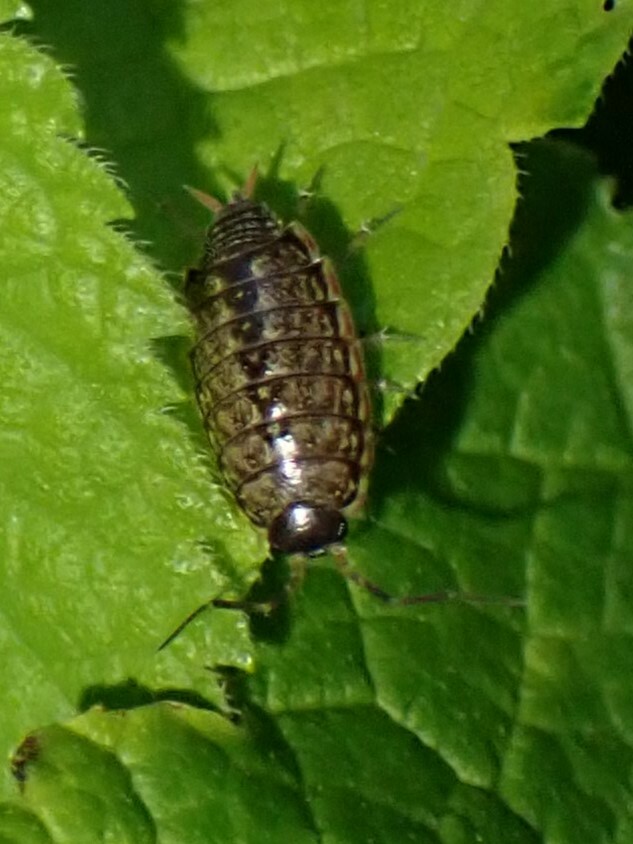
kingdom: Animalia
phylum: Arthropoda
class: Malacostraca
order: Isopoda
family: Philosciidae
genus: Philoscia
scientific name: Philoscia muscorum
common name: Common striped woodlouse
